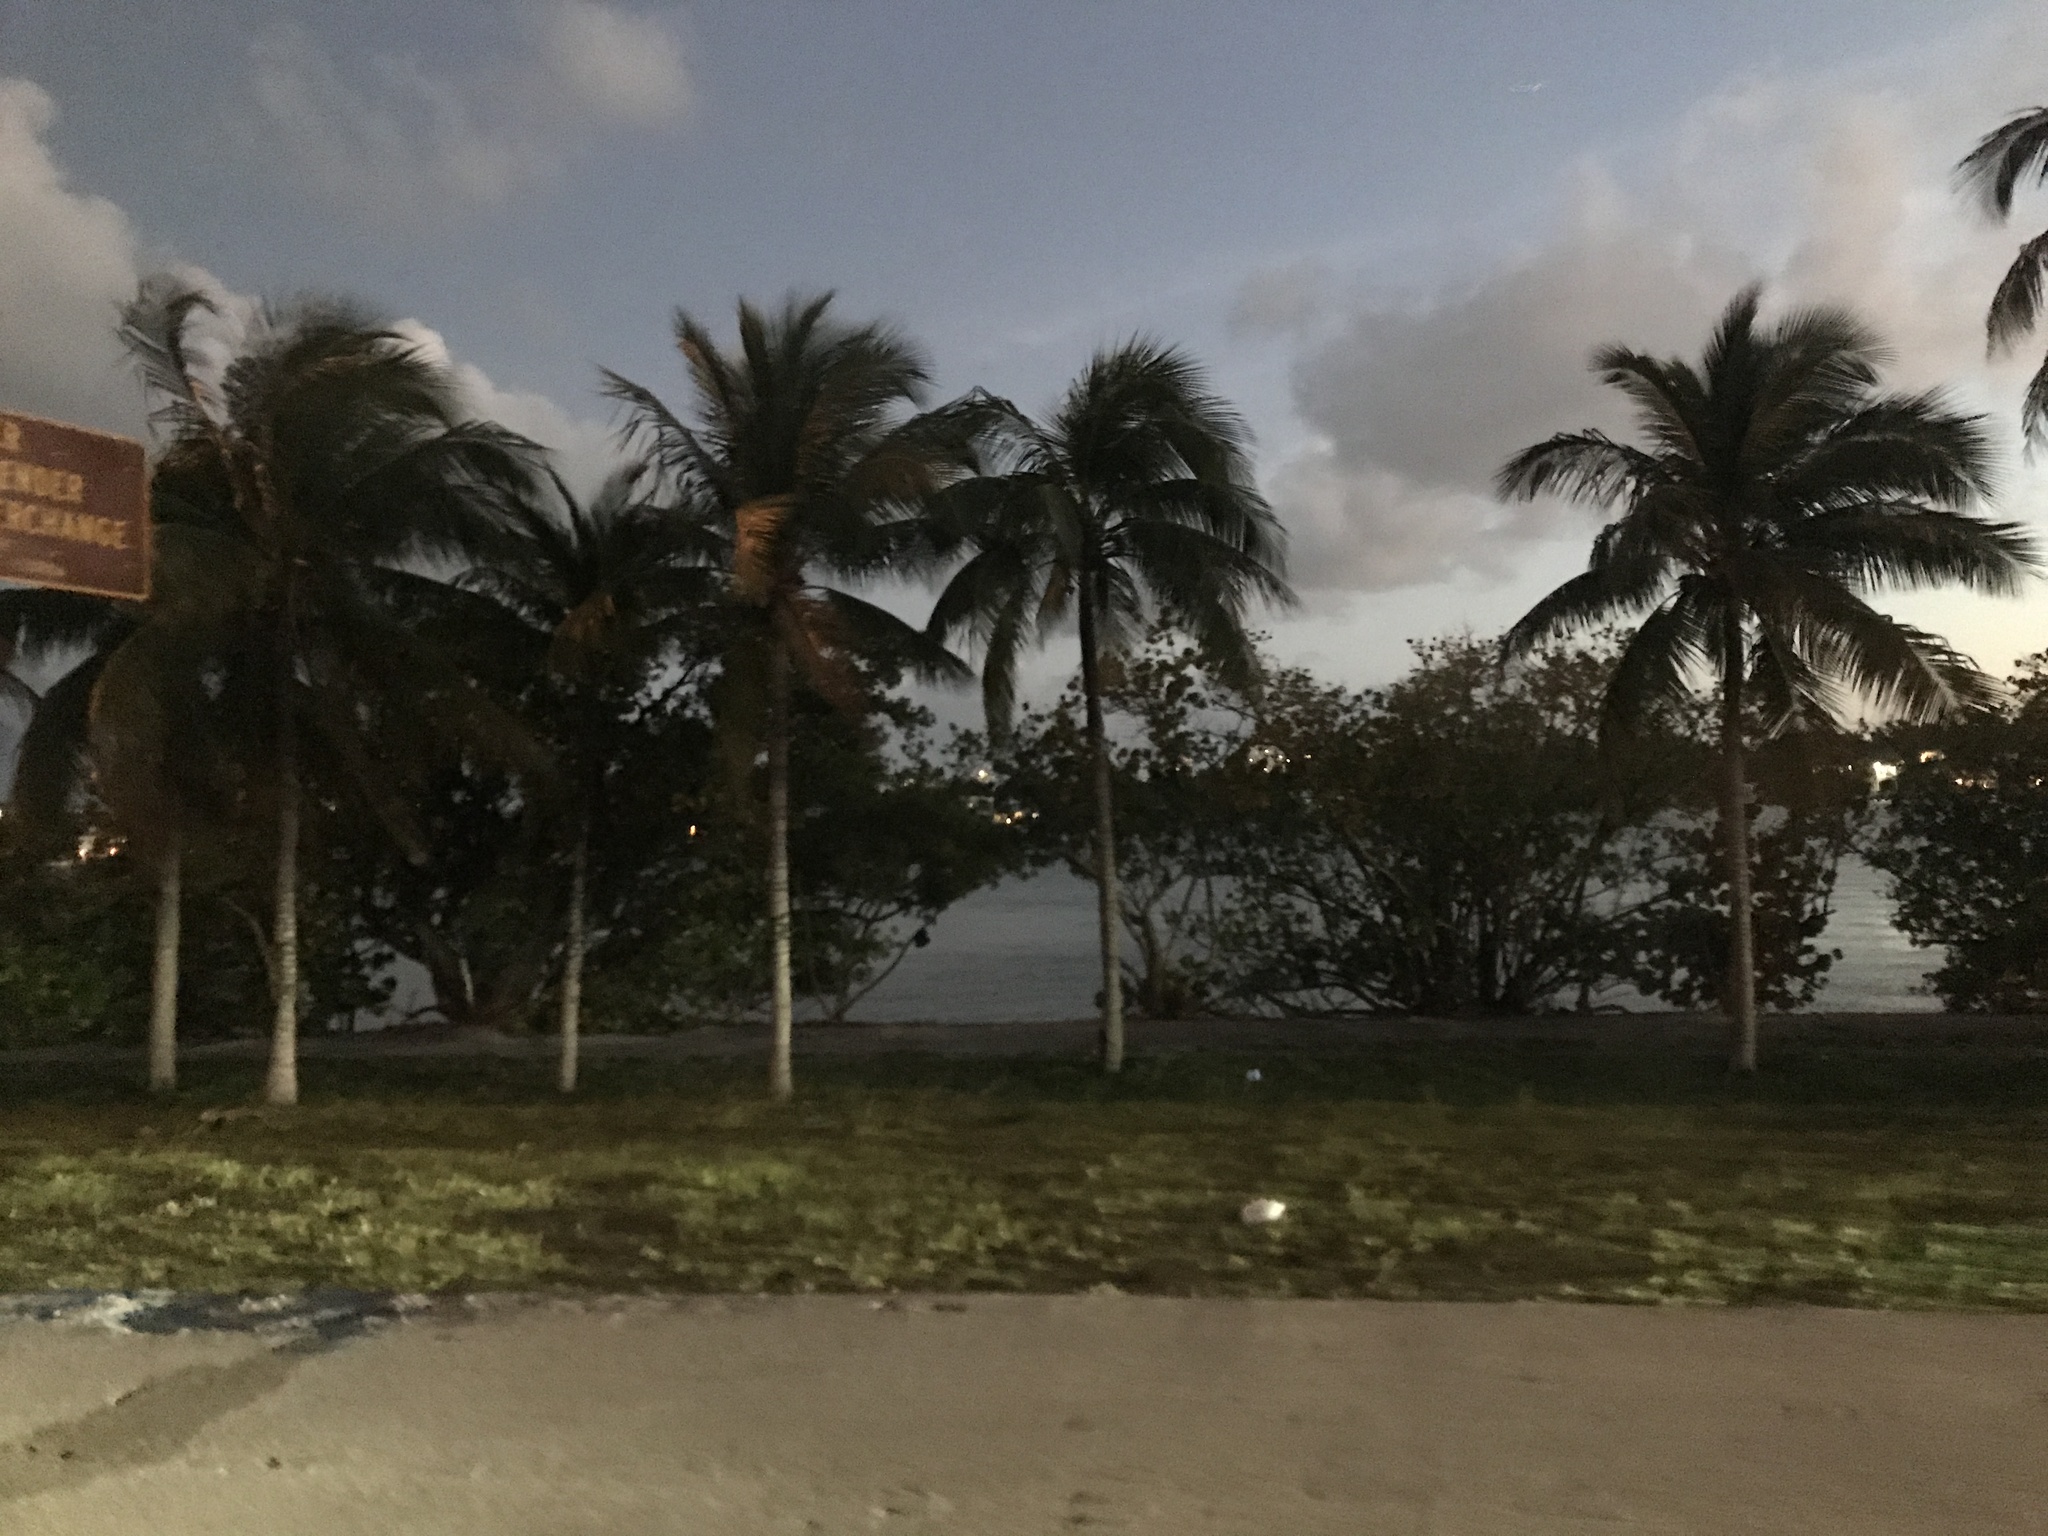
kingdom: Plantae
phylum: Tracheophyta
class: Liliopsida
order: Arecales
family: Arecaceae
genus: Cocos
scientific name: Cocos nucifera
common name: Coconut palm
